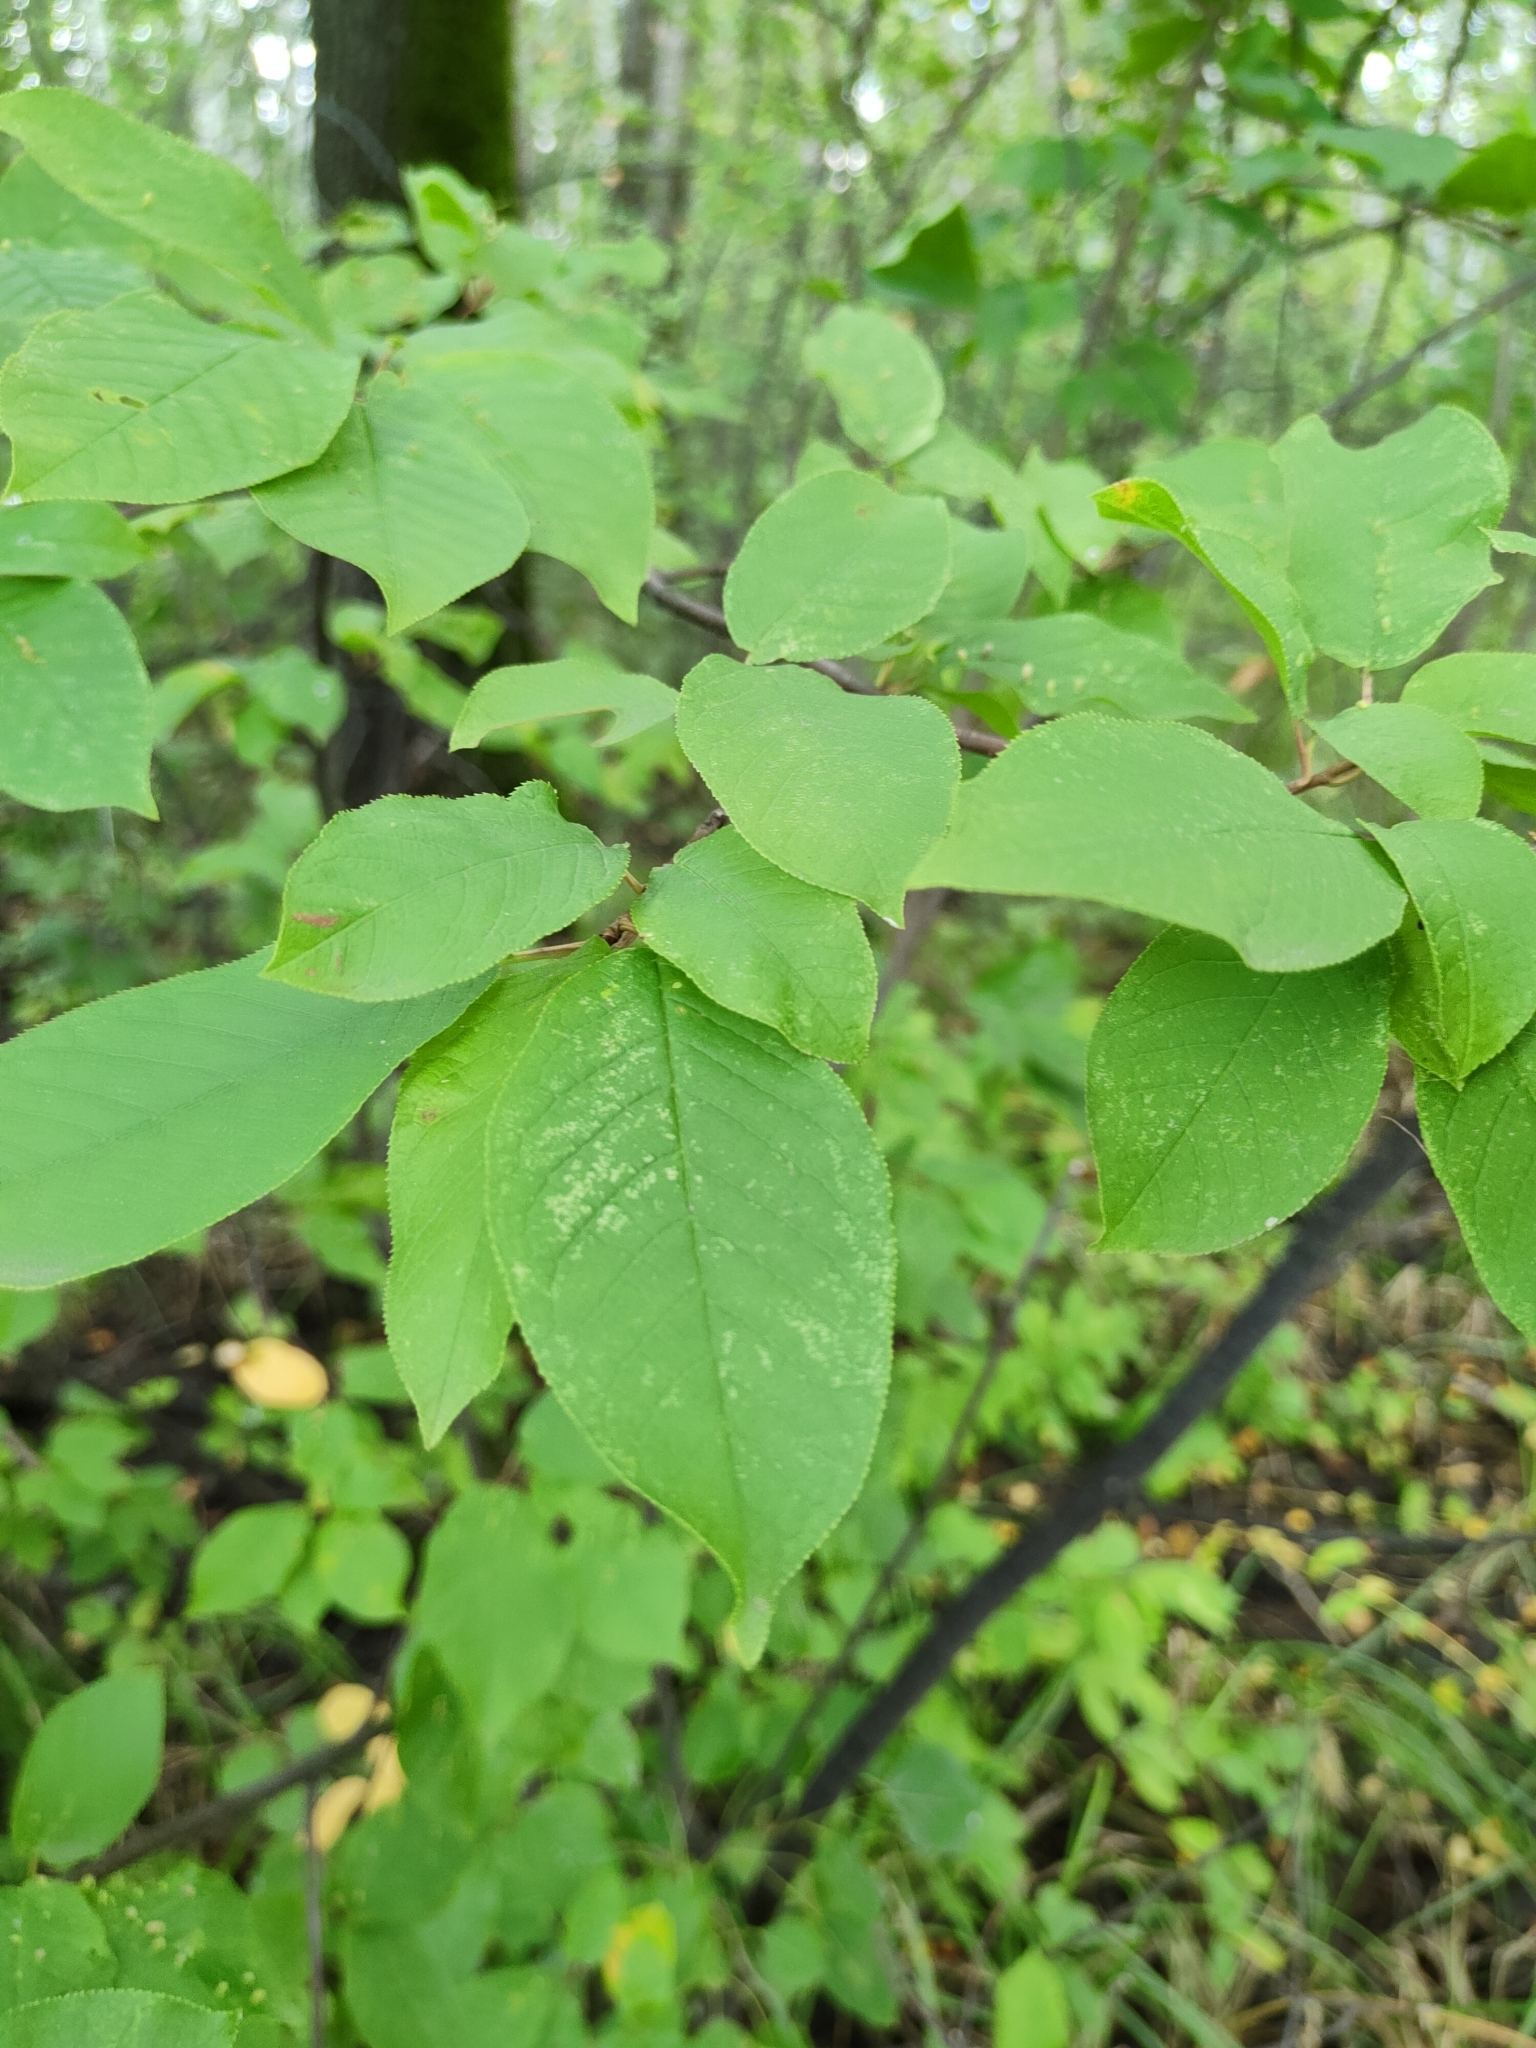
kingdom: Plantae
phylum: Tracheophyta
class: Magnoliopsida
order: Rosales
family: Rosaceae
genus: Prunus
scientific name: Prunus padus
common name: Bird cherry
